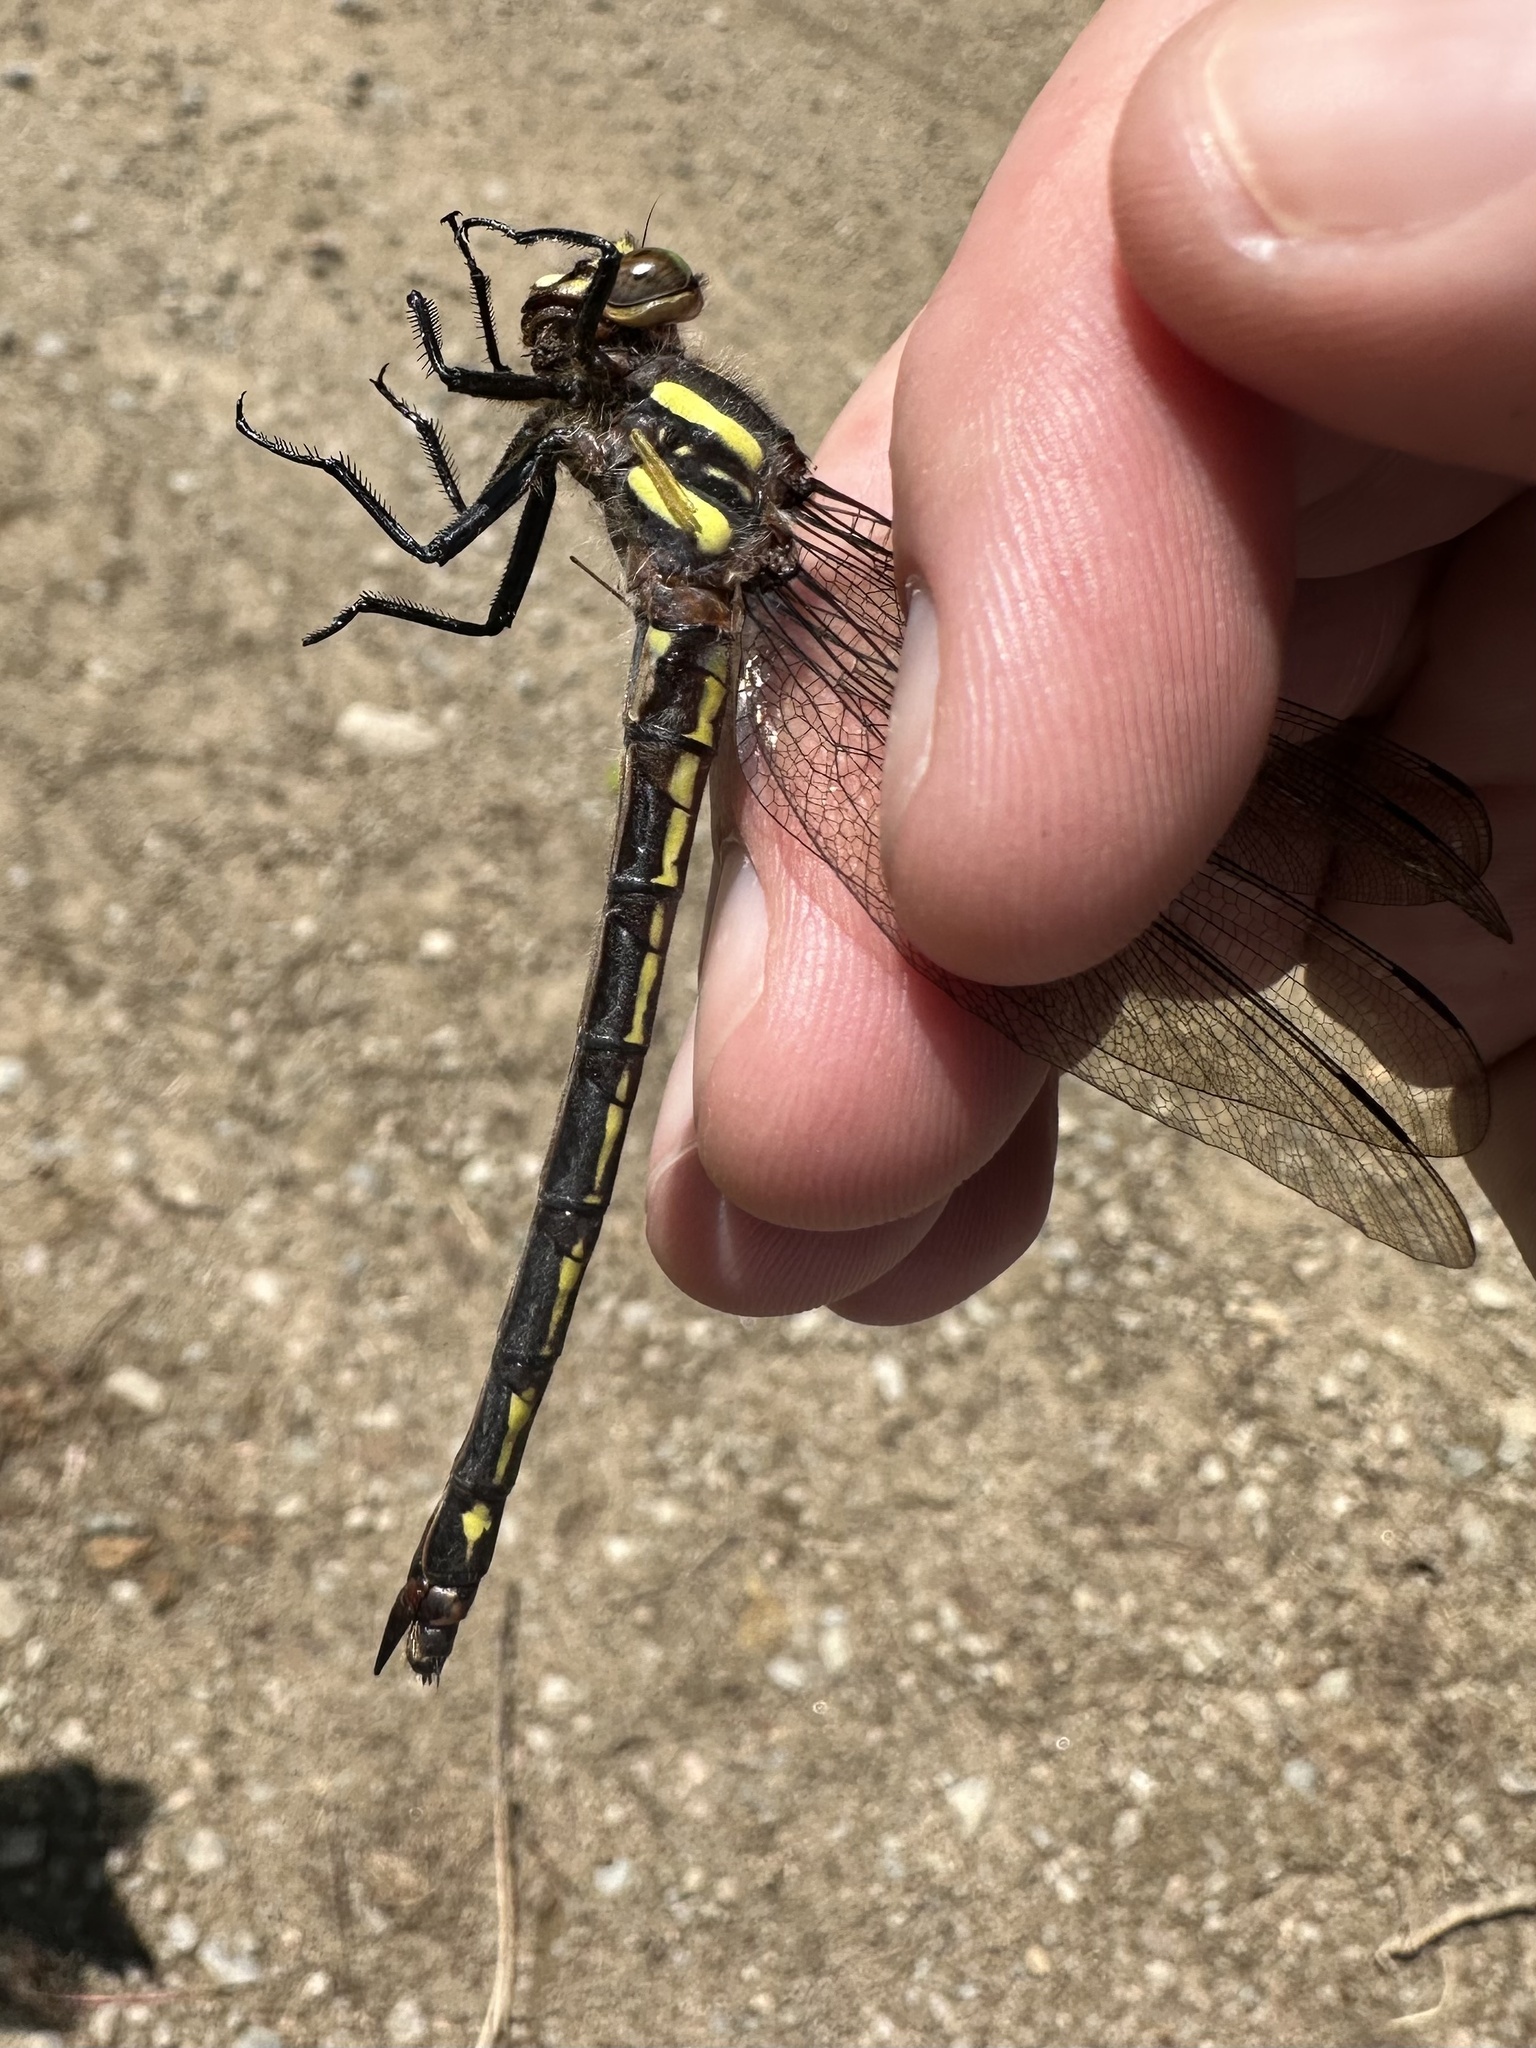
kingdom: Animalia
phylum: Arthropoda
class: Insecta
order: Odonata
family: Cordulegastridae
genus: Cordulegaster
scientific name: Cordulegaster diastatops
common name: Delta-spotted spiketail
